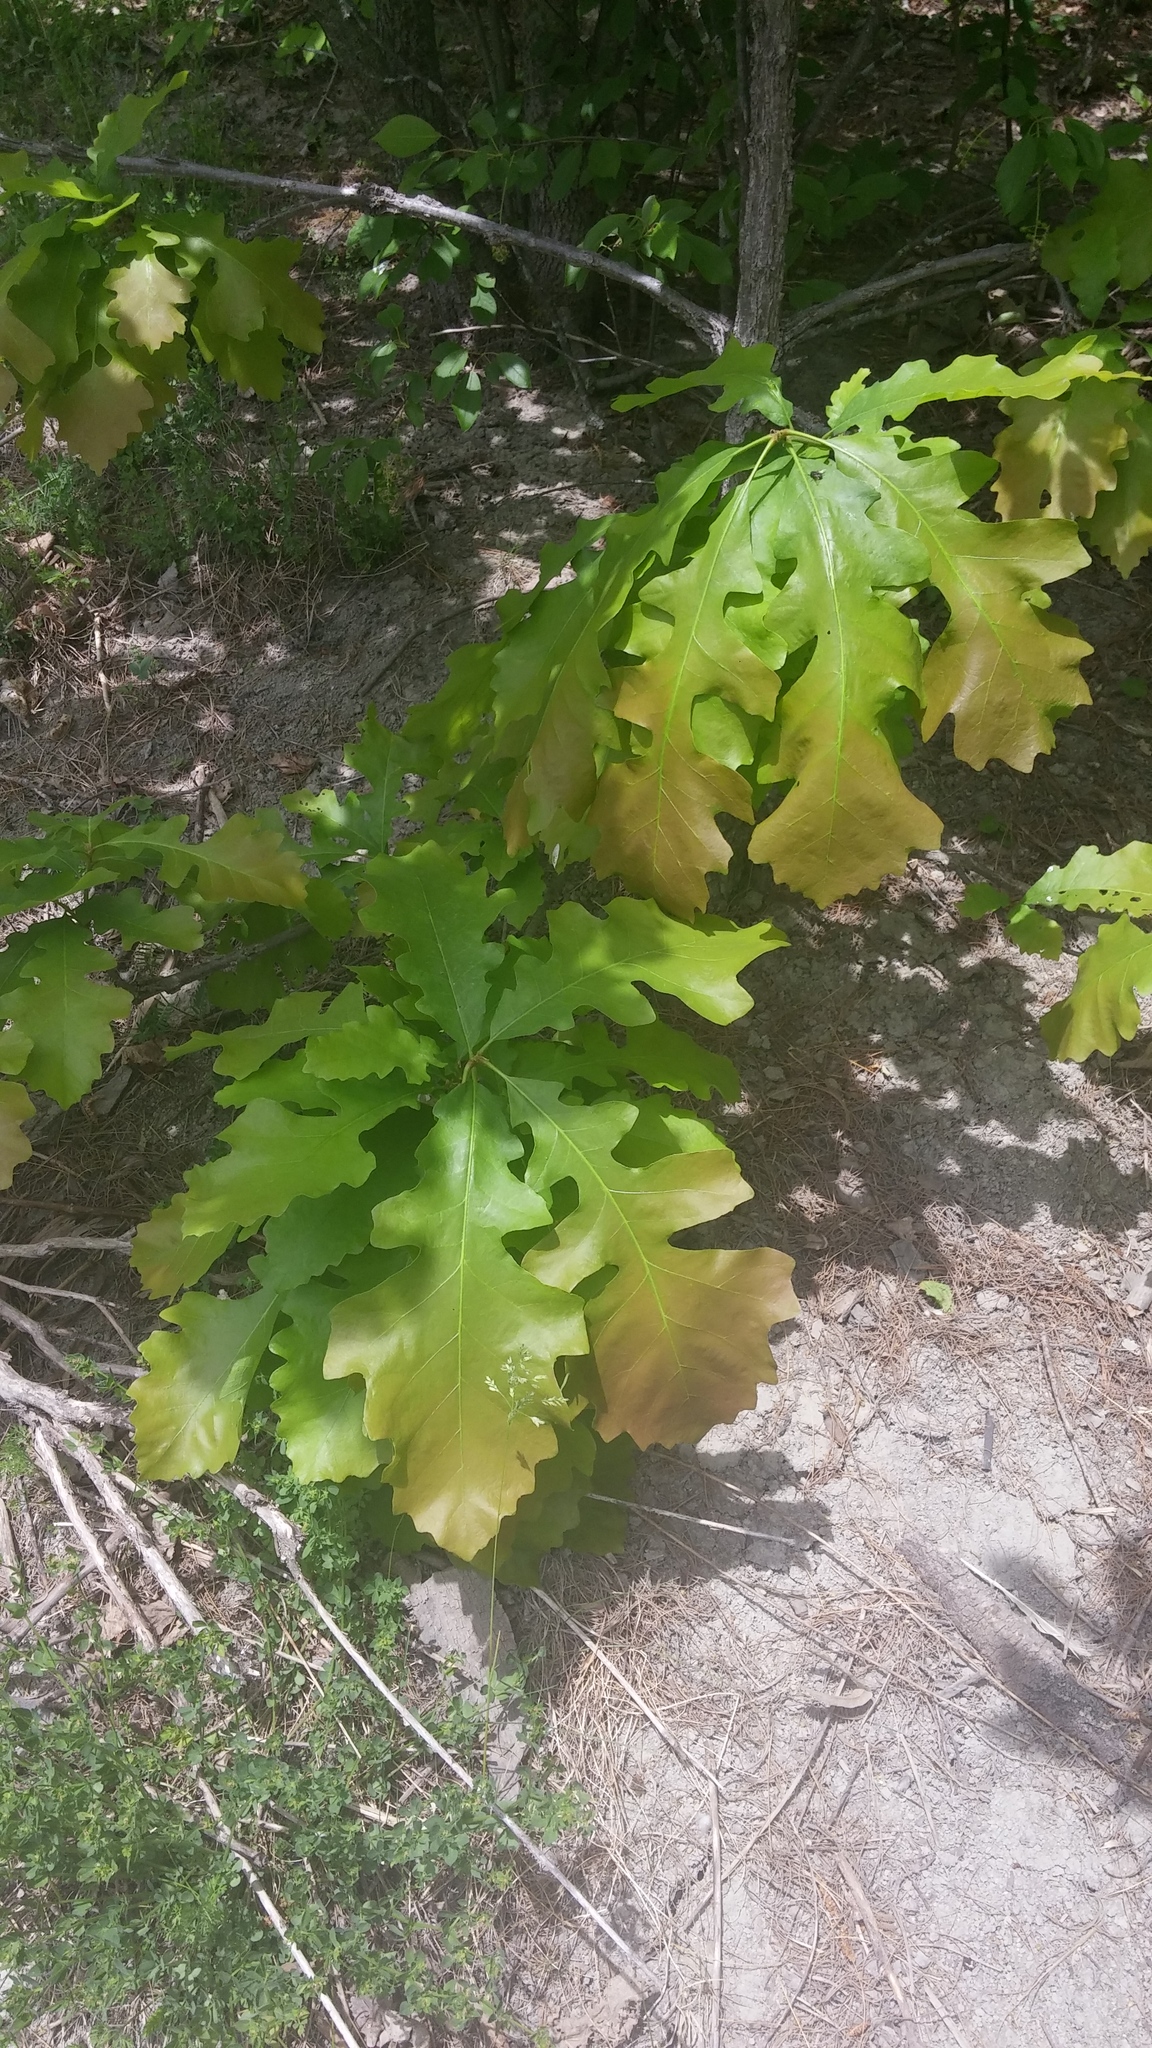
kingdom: Plantae
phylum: Tracheophyta
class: Magnoliopsida
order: Fagales
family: Fagaceae
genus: Quercus
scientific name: Quercus macrocarpa
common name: Bur oak
